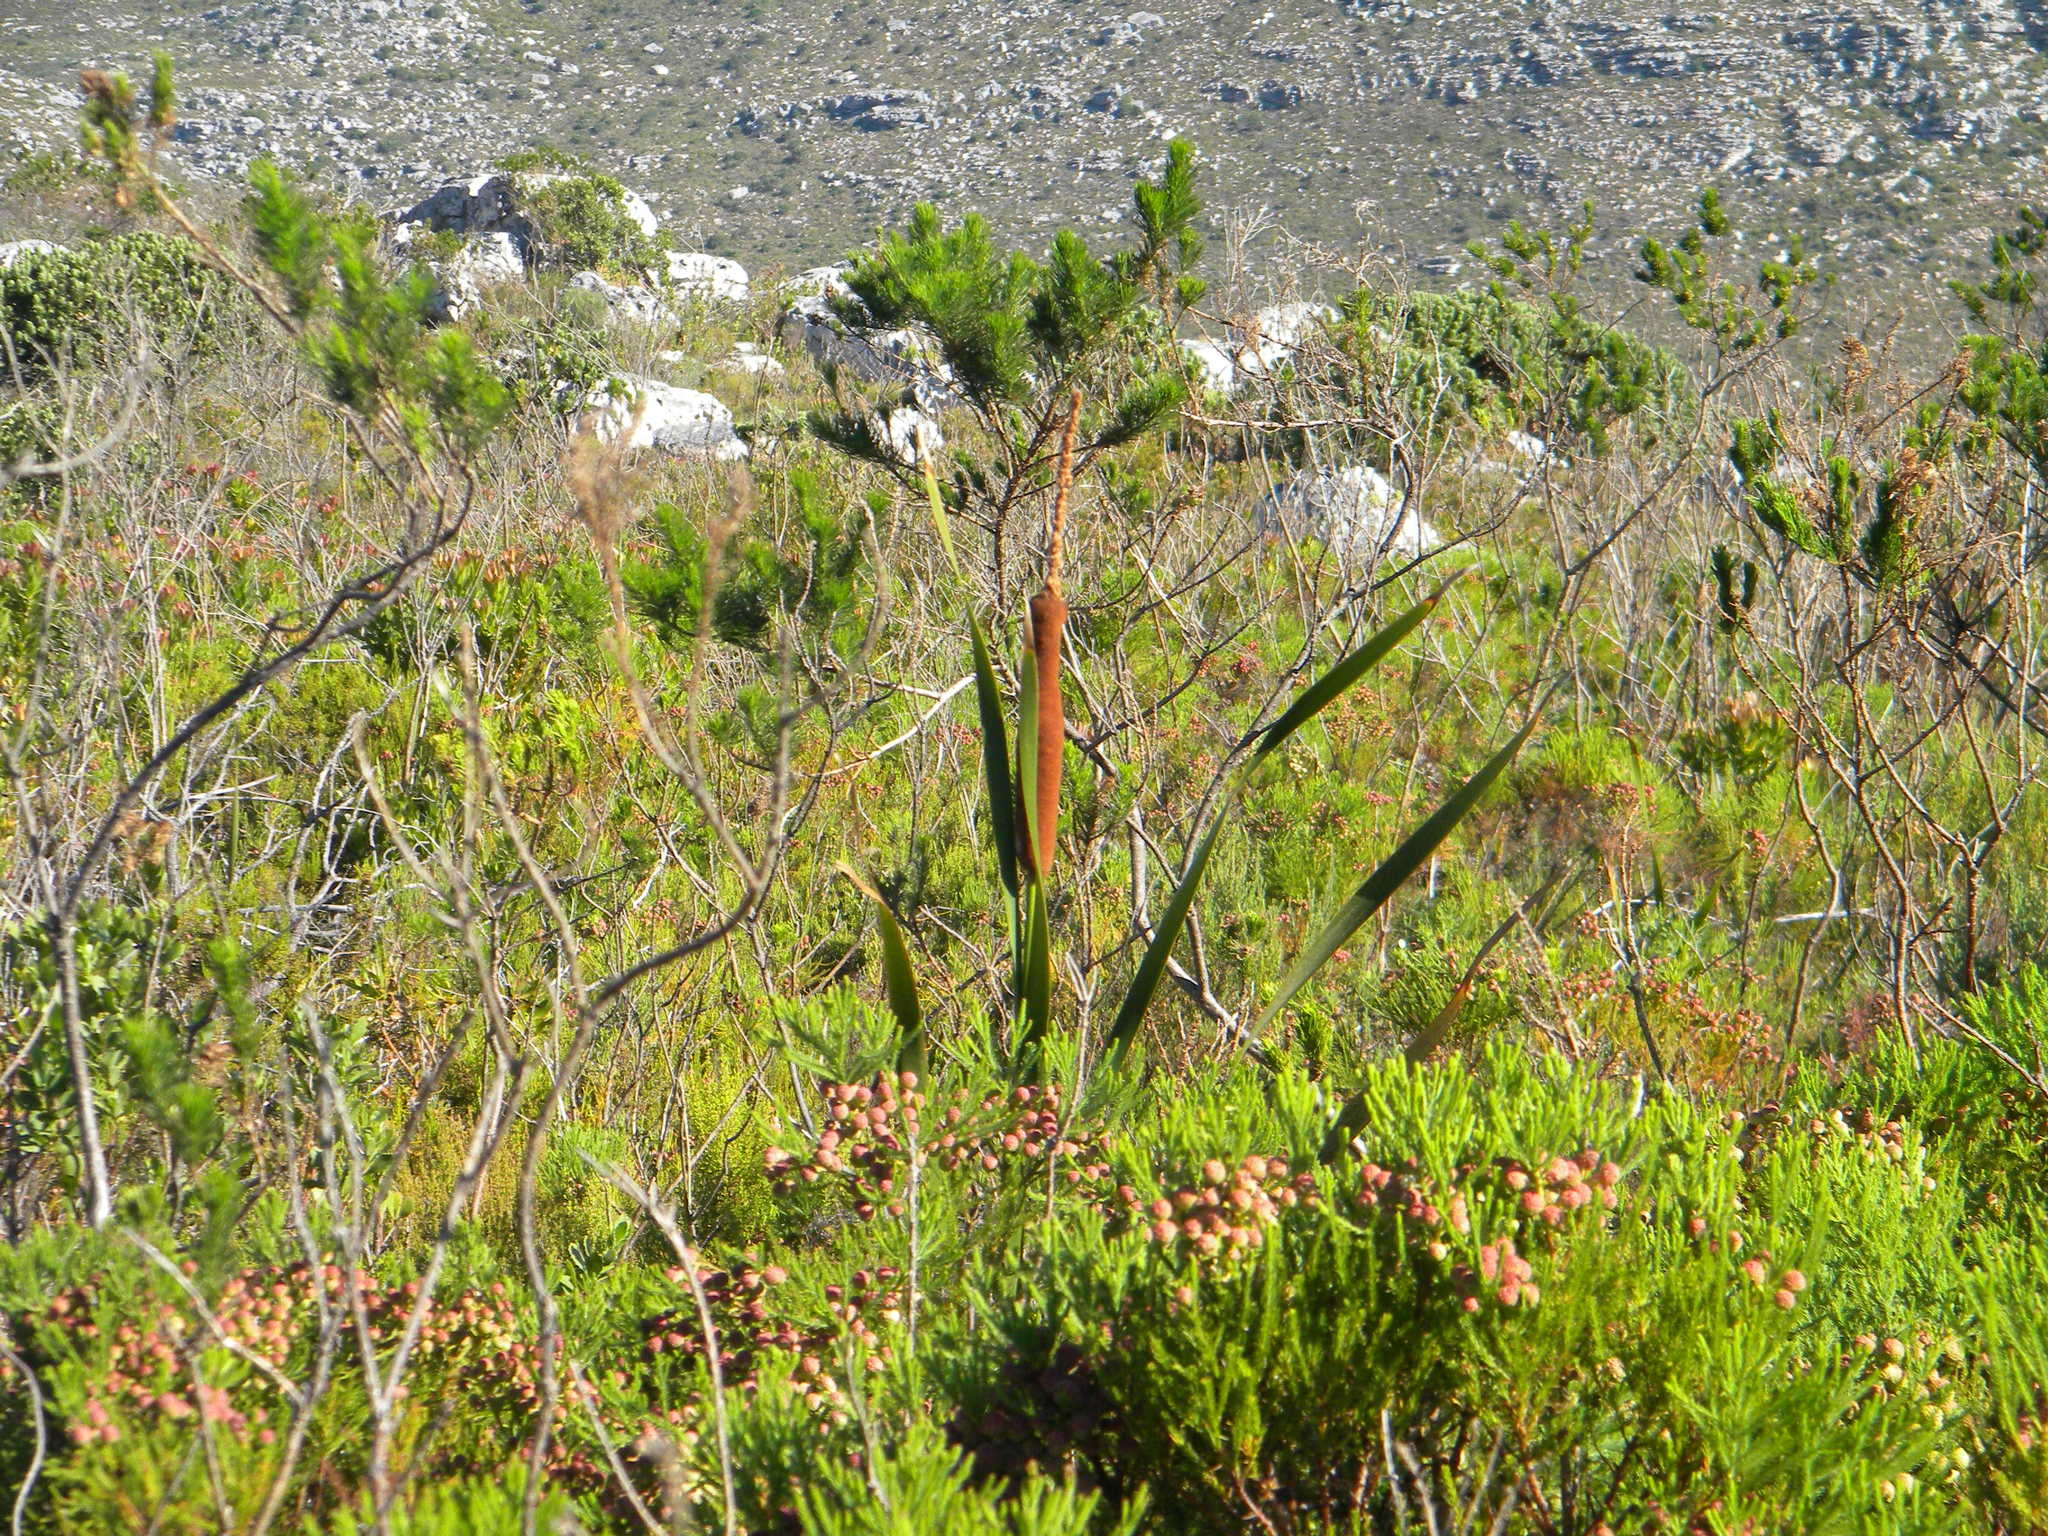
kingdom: Plantae
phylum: Tracheophyta
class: Liliopsida
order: Poales
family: Typhaceae
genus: Typha
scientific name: Typha capensis
